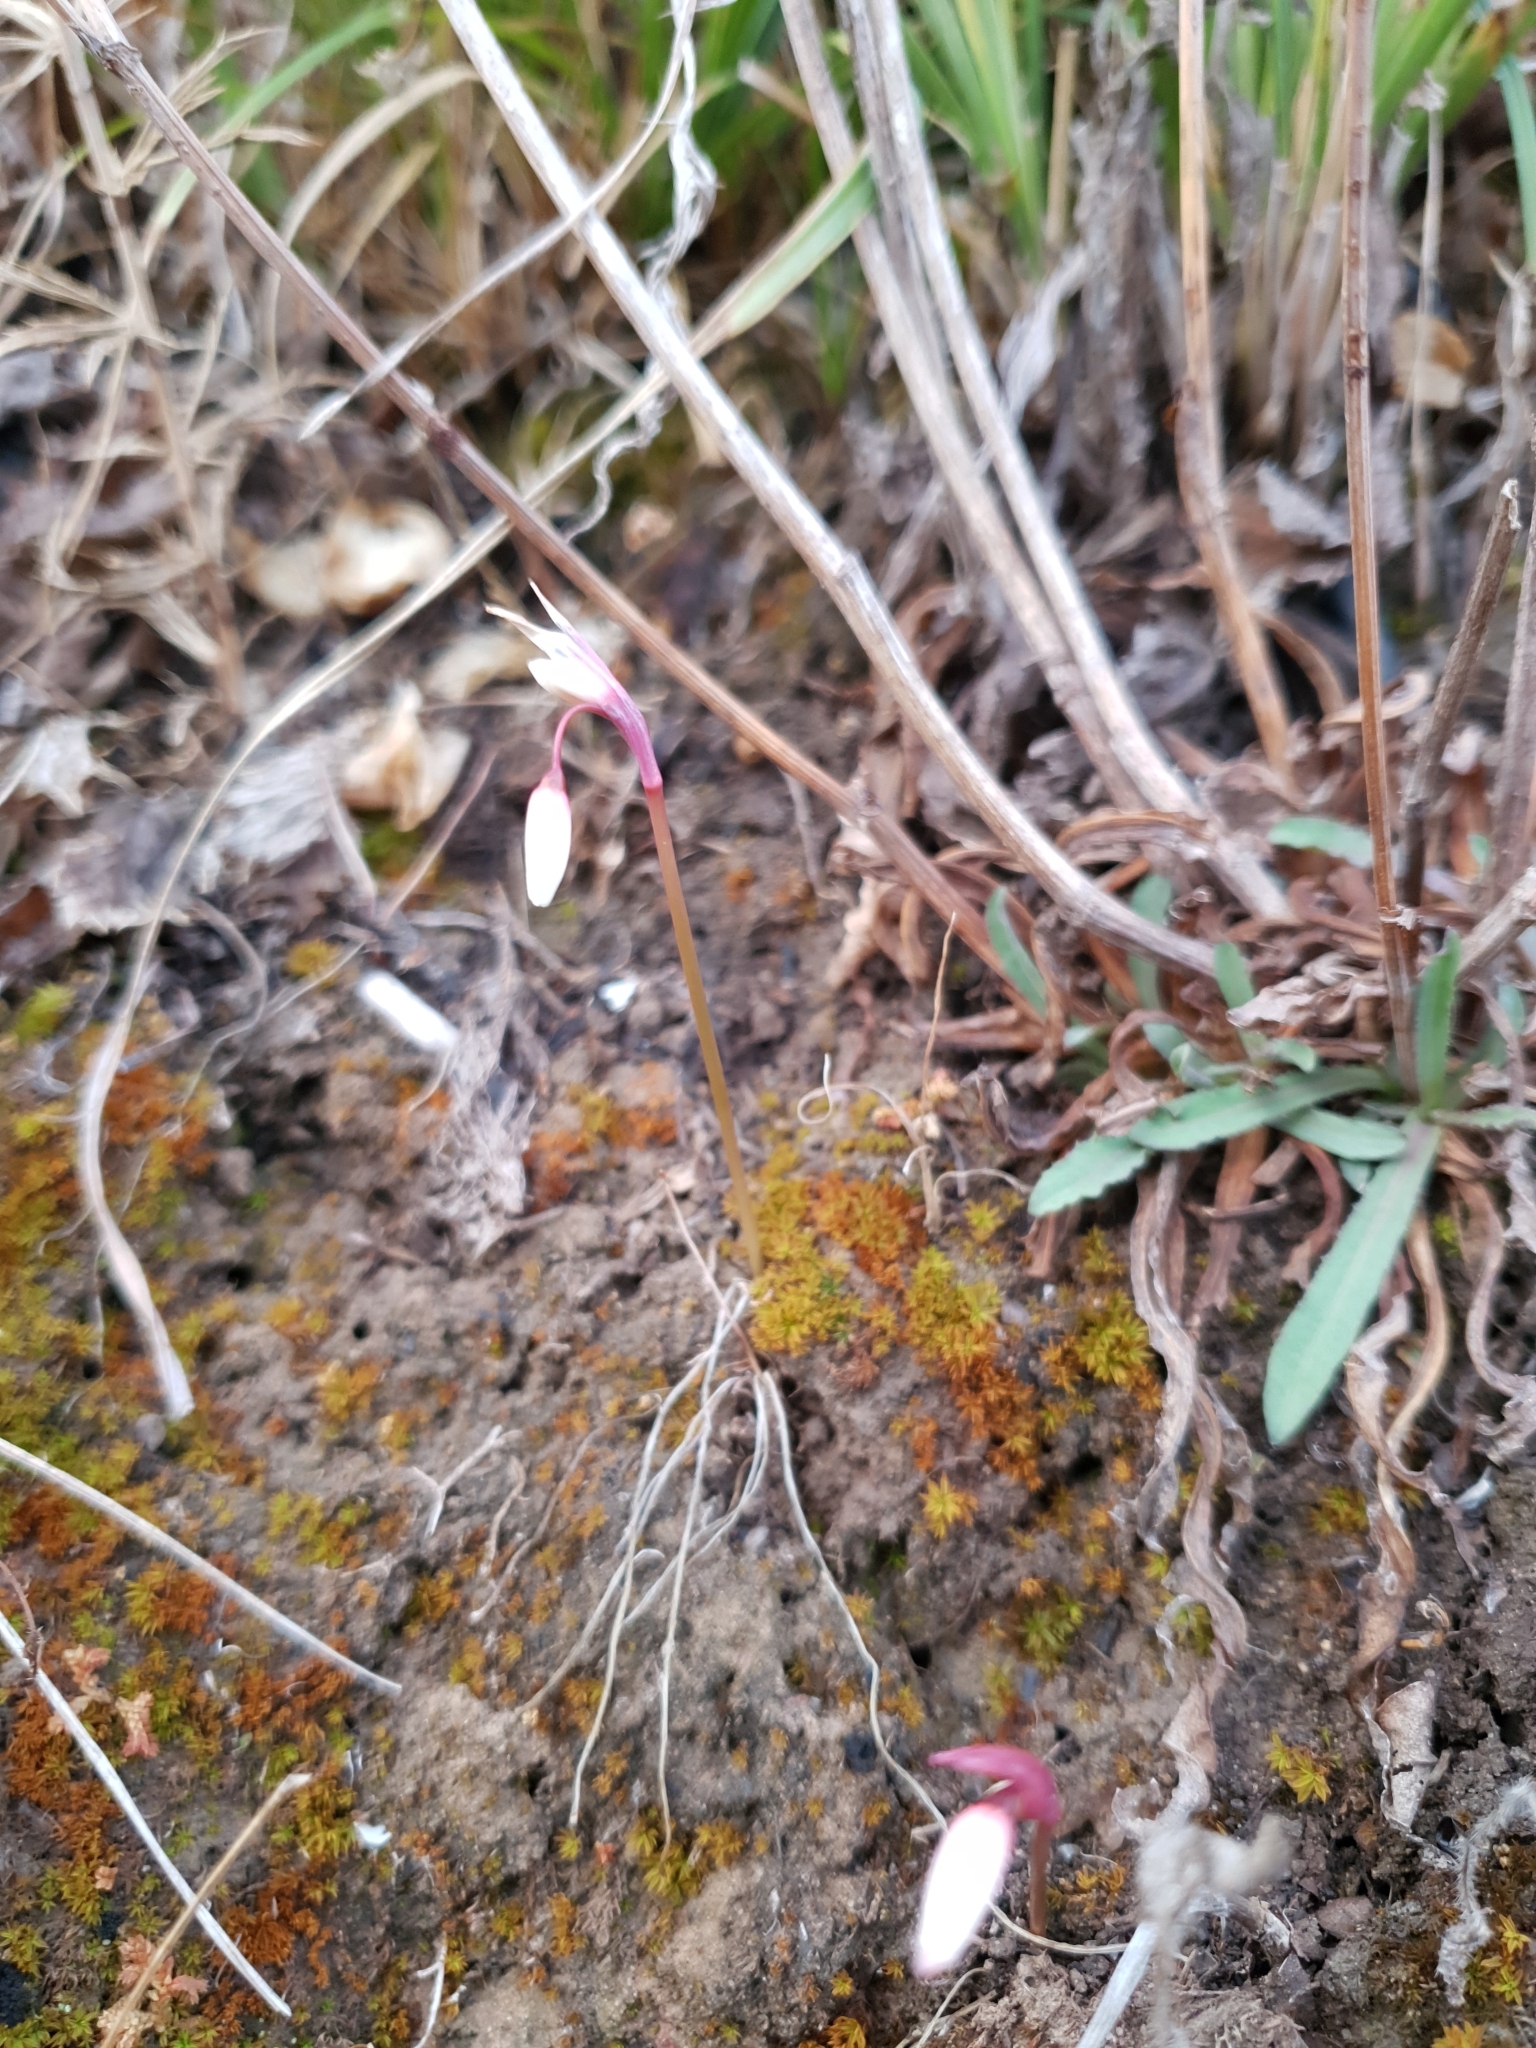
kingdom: Plantae
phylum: Tracheophyta
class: Liliopsida
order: Asparagales
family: Amaryllidaceae
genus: Acis
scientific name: Acis autumnalis
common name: Autumn snowflake
